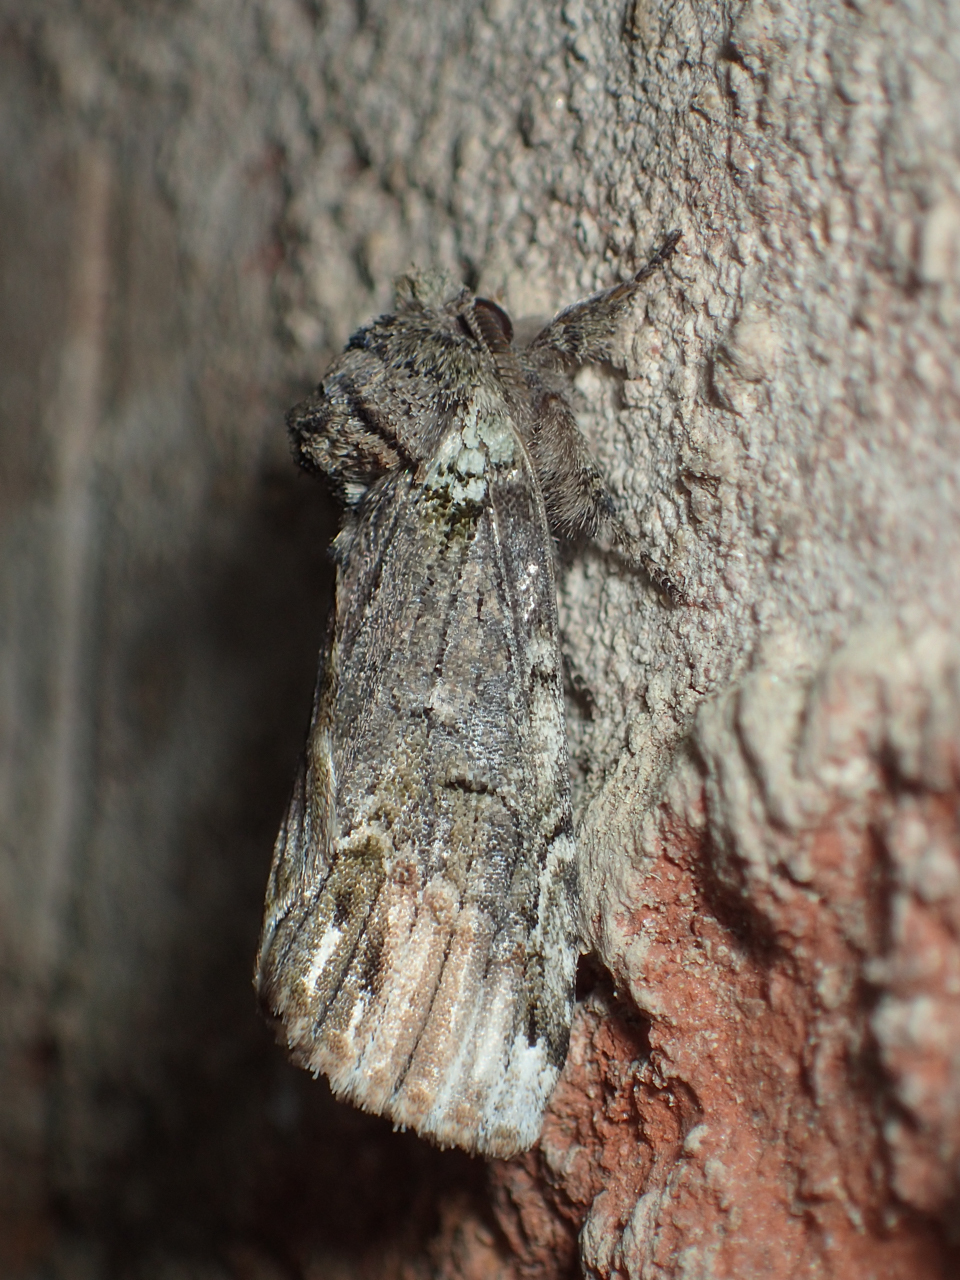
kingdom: Animalia
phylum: Arthropoda
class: Insecta
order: Lepidoptera
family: Notodontidae
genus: Schizura
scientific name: Schizura
